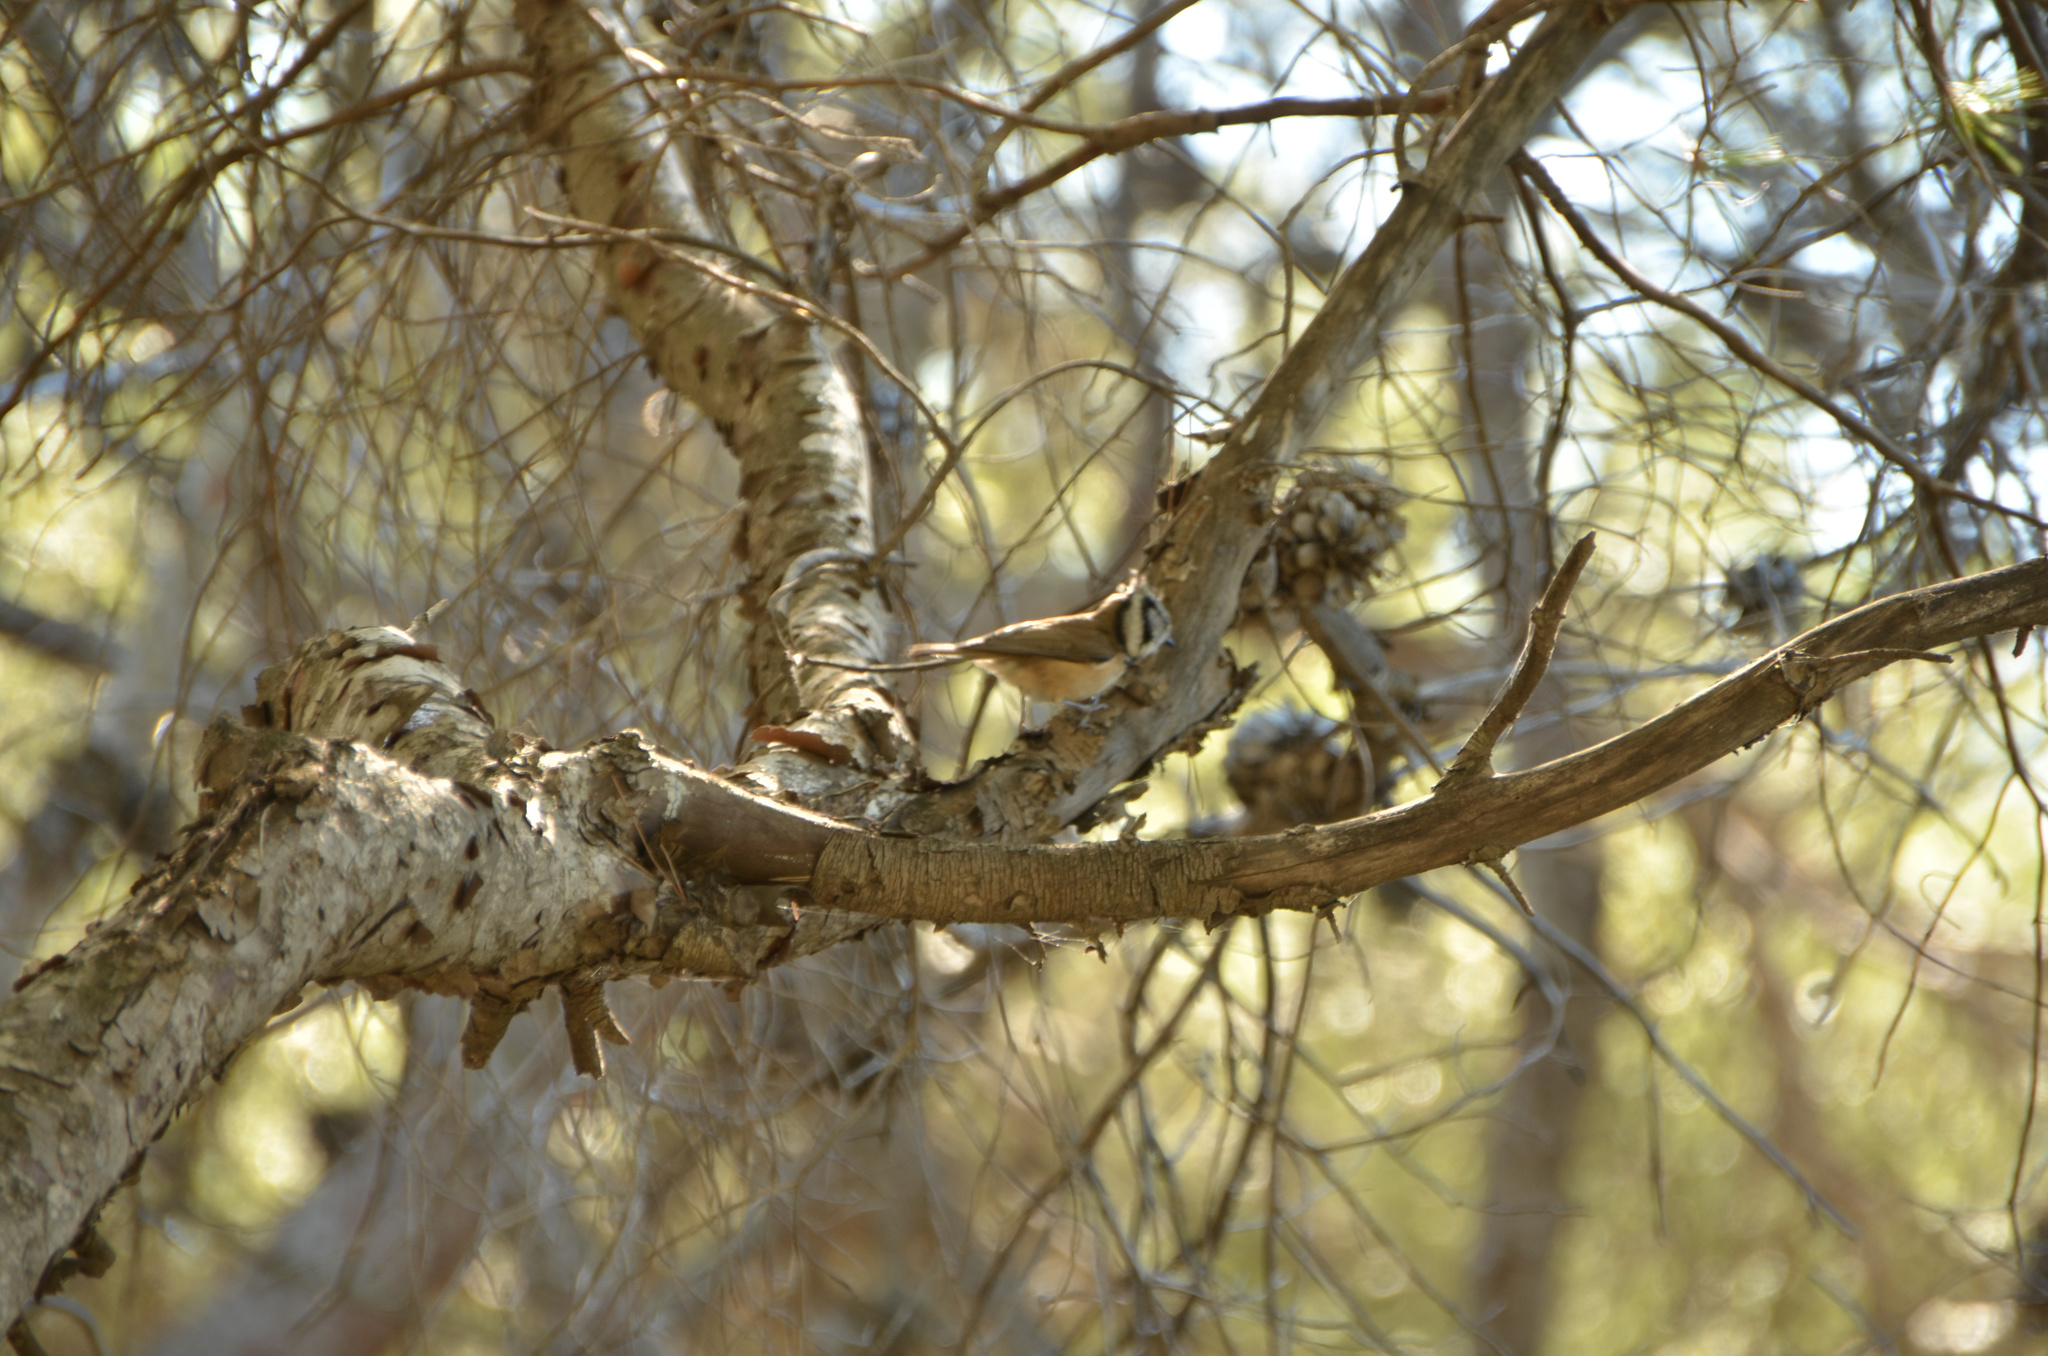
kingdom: Animalia
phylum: Chordata
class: Aves
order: Passeriformes
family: Paridae
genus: Lophophanes
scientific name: Lophophanes cristatus
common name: European crested tit
